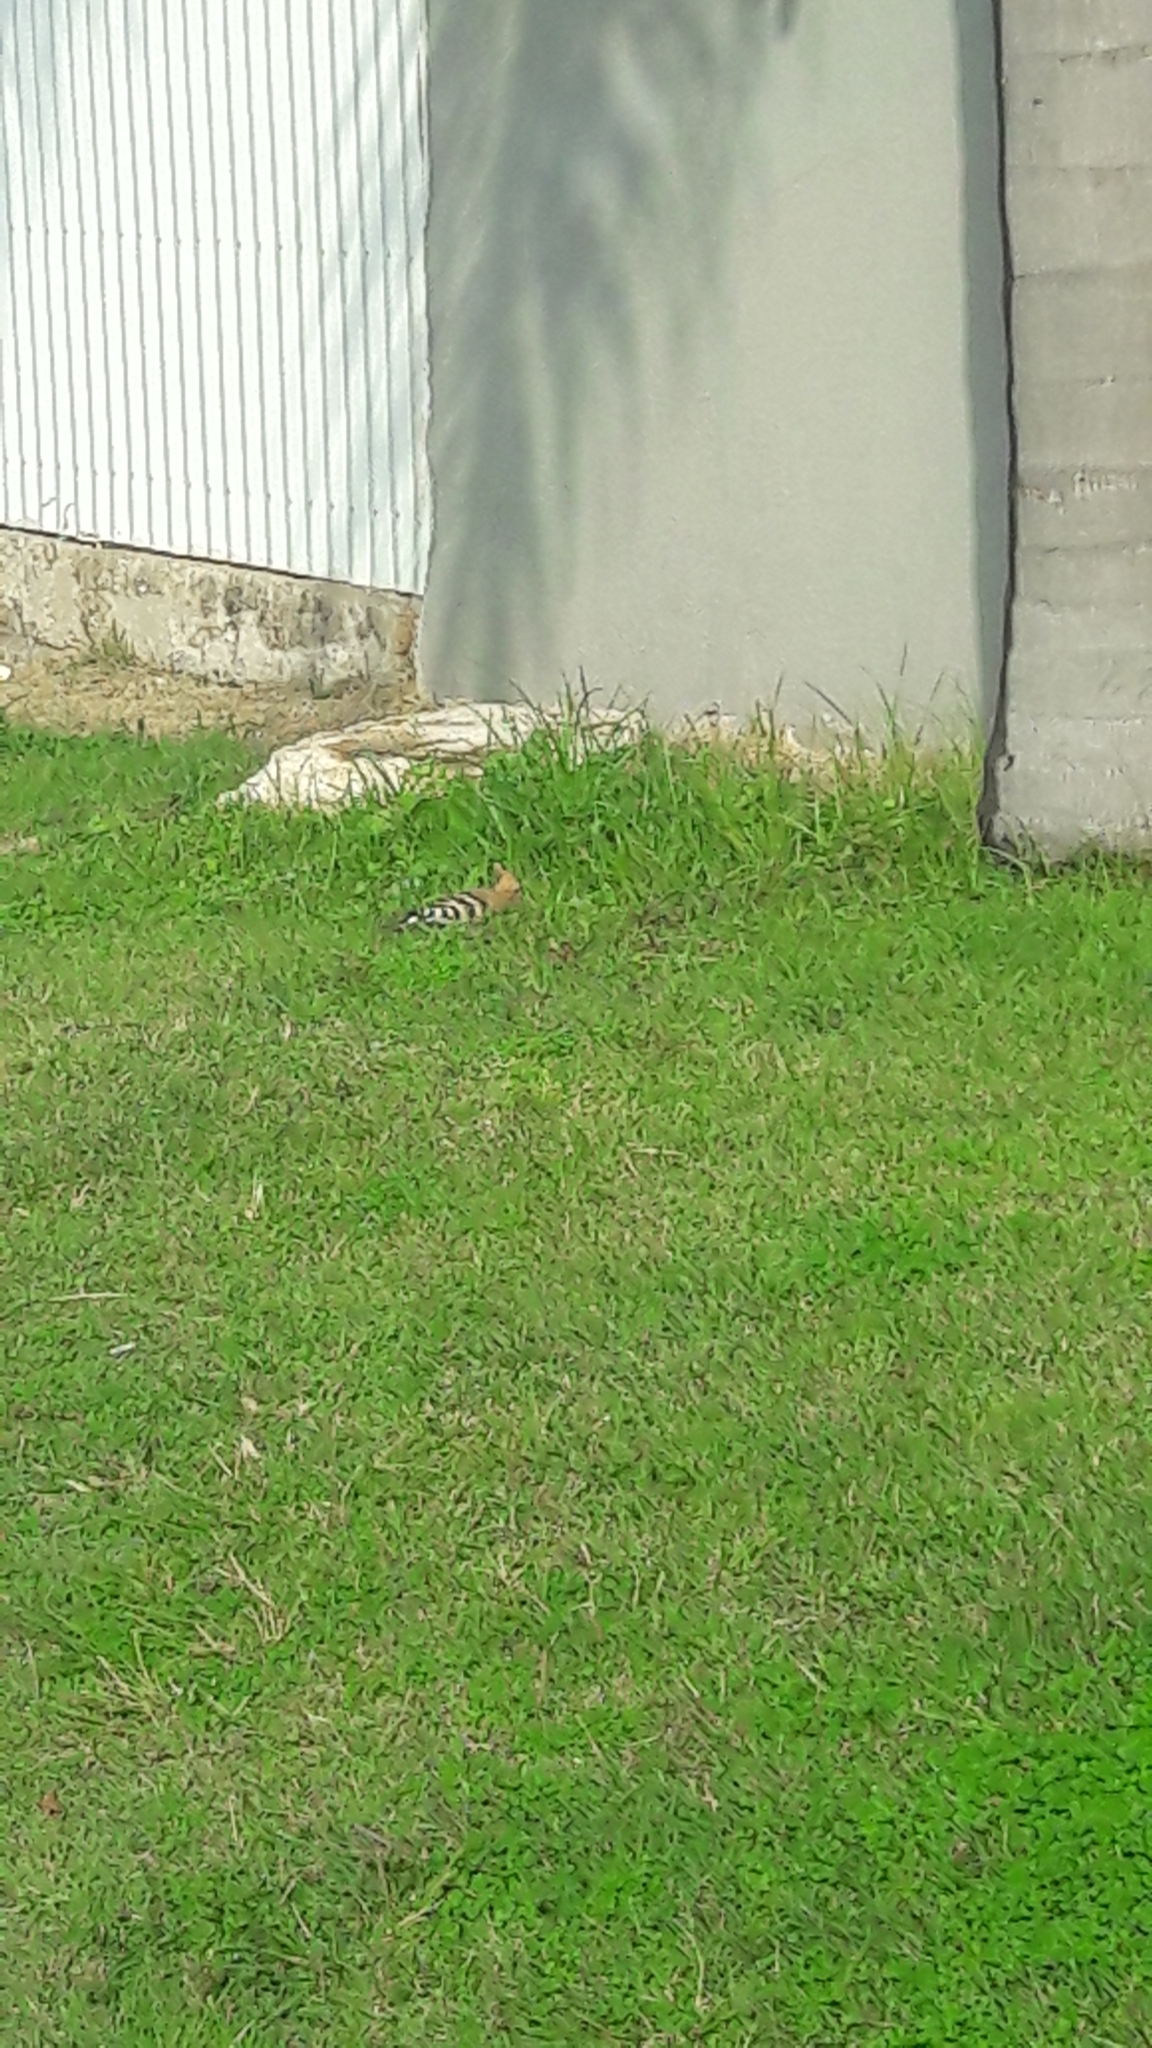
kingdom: Animalia
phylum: Chordata
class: Aves
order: Bucerotiformes
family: Upupidae
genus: Upupa
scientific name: Upupa epops
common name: Eurasian hoopoe
